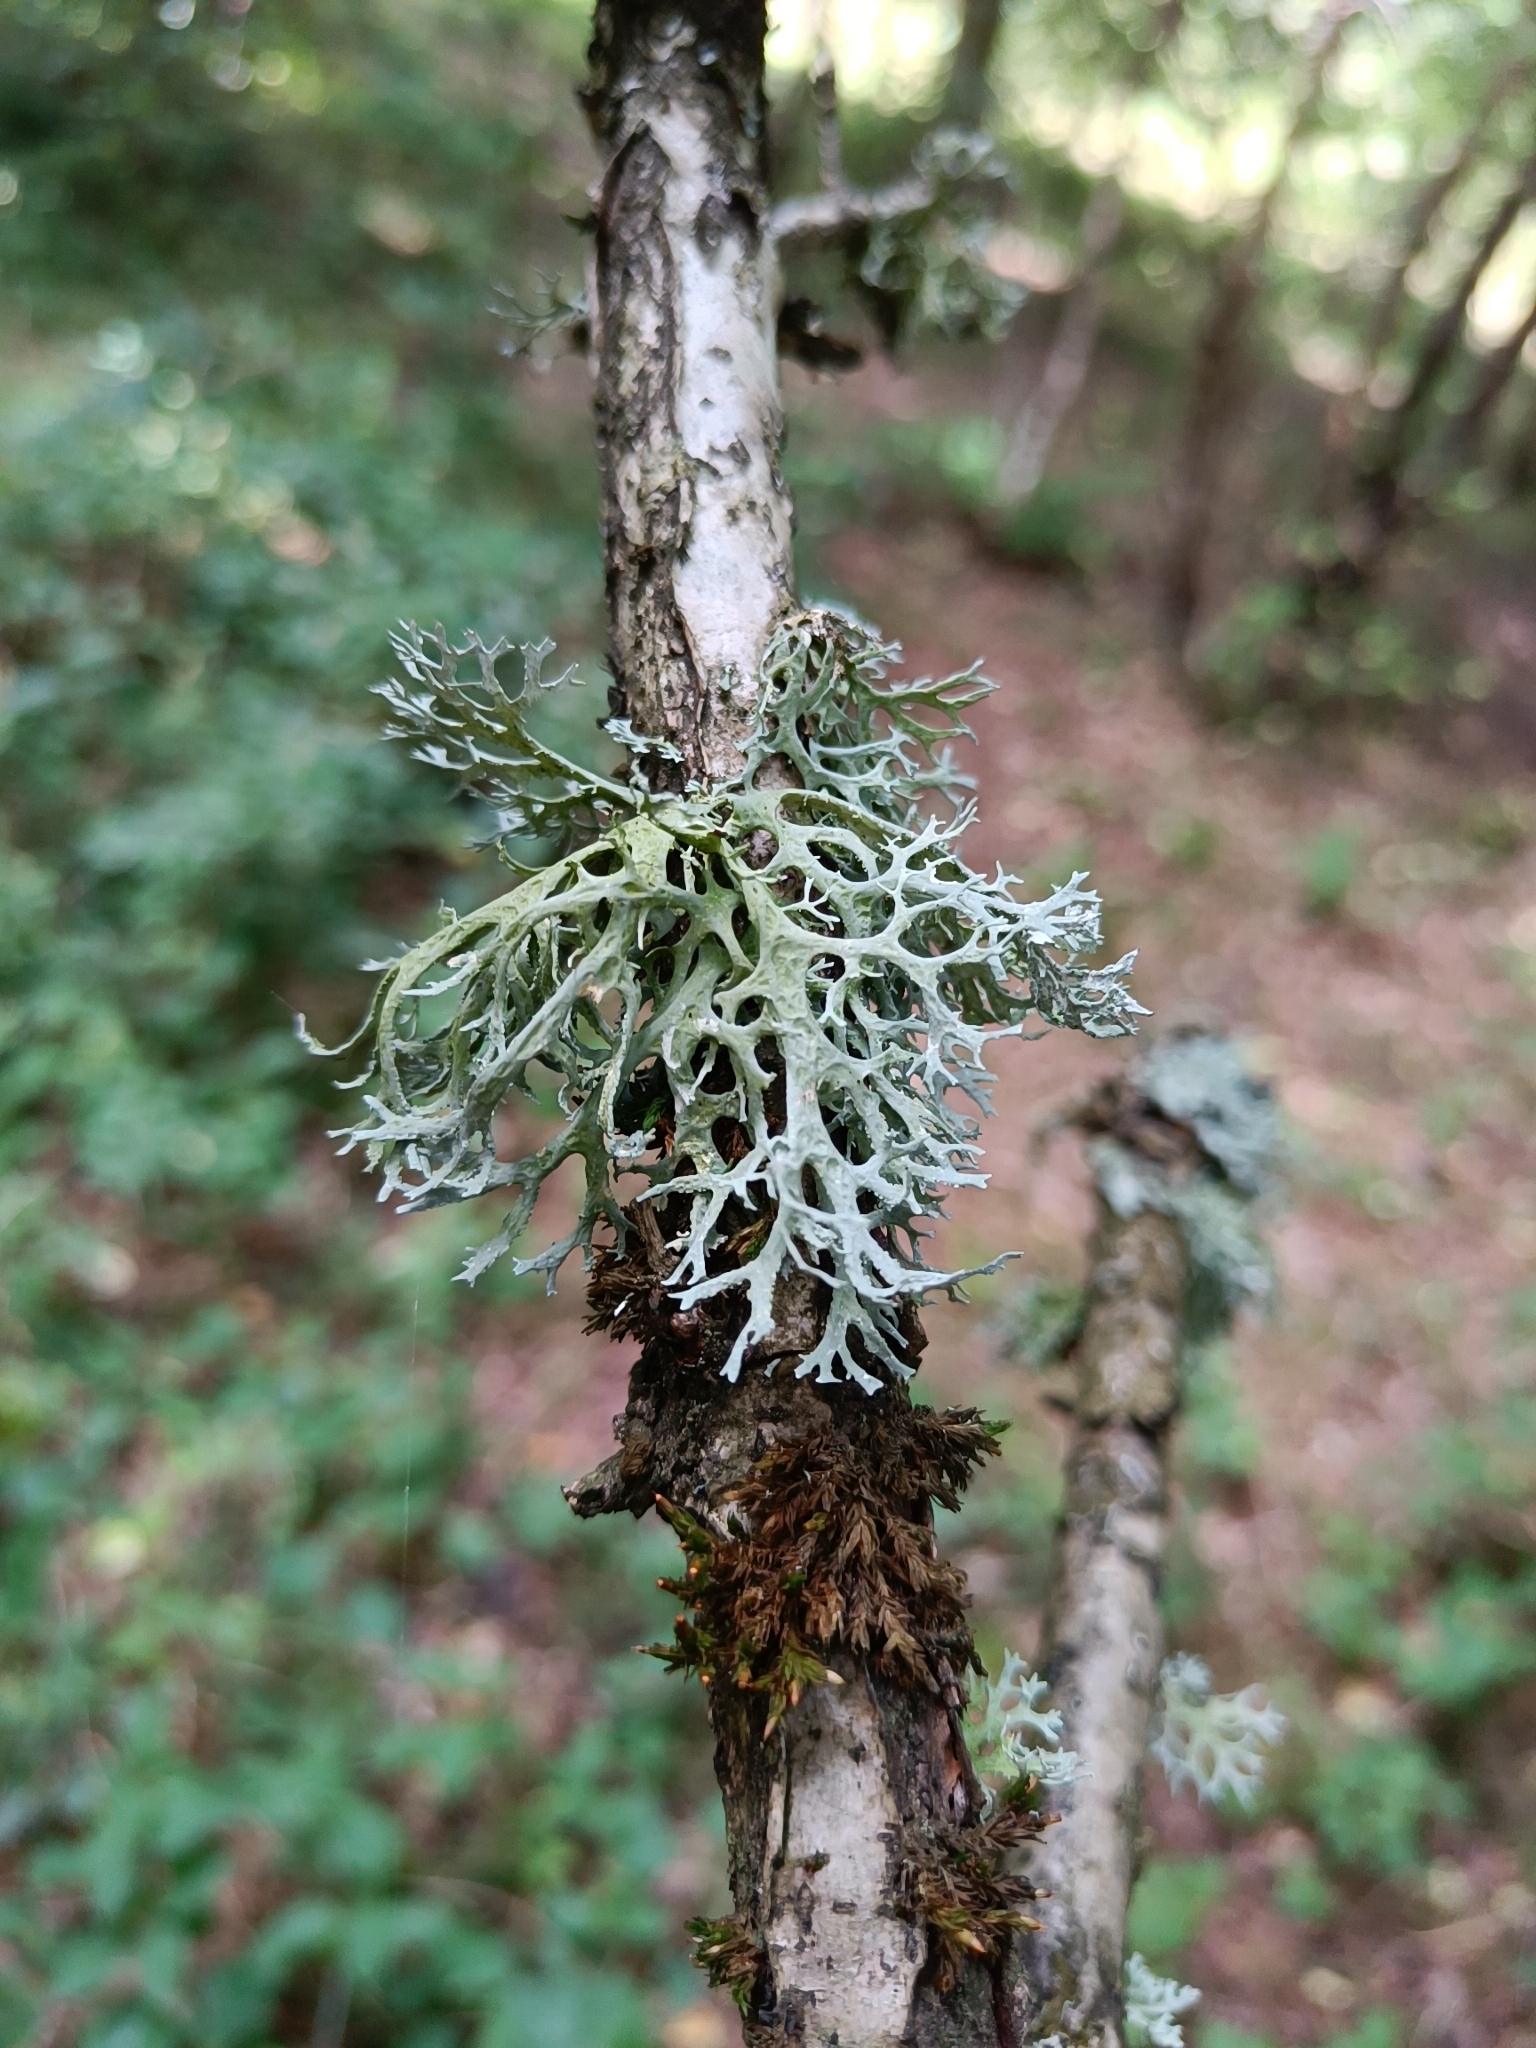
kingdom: Fungi
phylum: Ascomycota
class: Lecanoromycetes
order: Lecanorales
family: Parmeliaceae
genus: Evernia
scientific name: Evernia prunastri
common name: Oak moss
